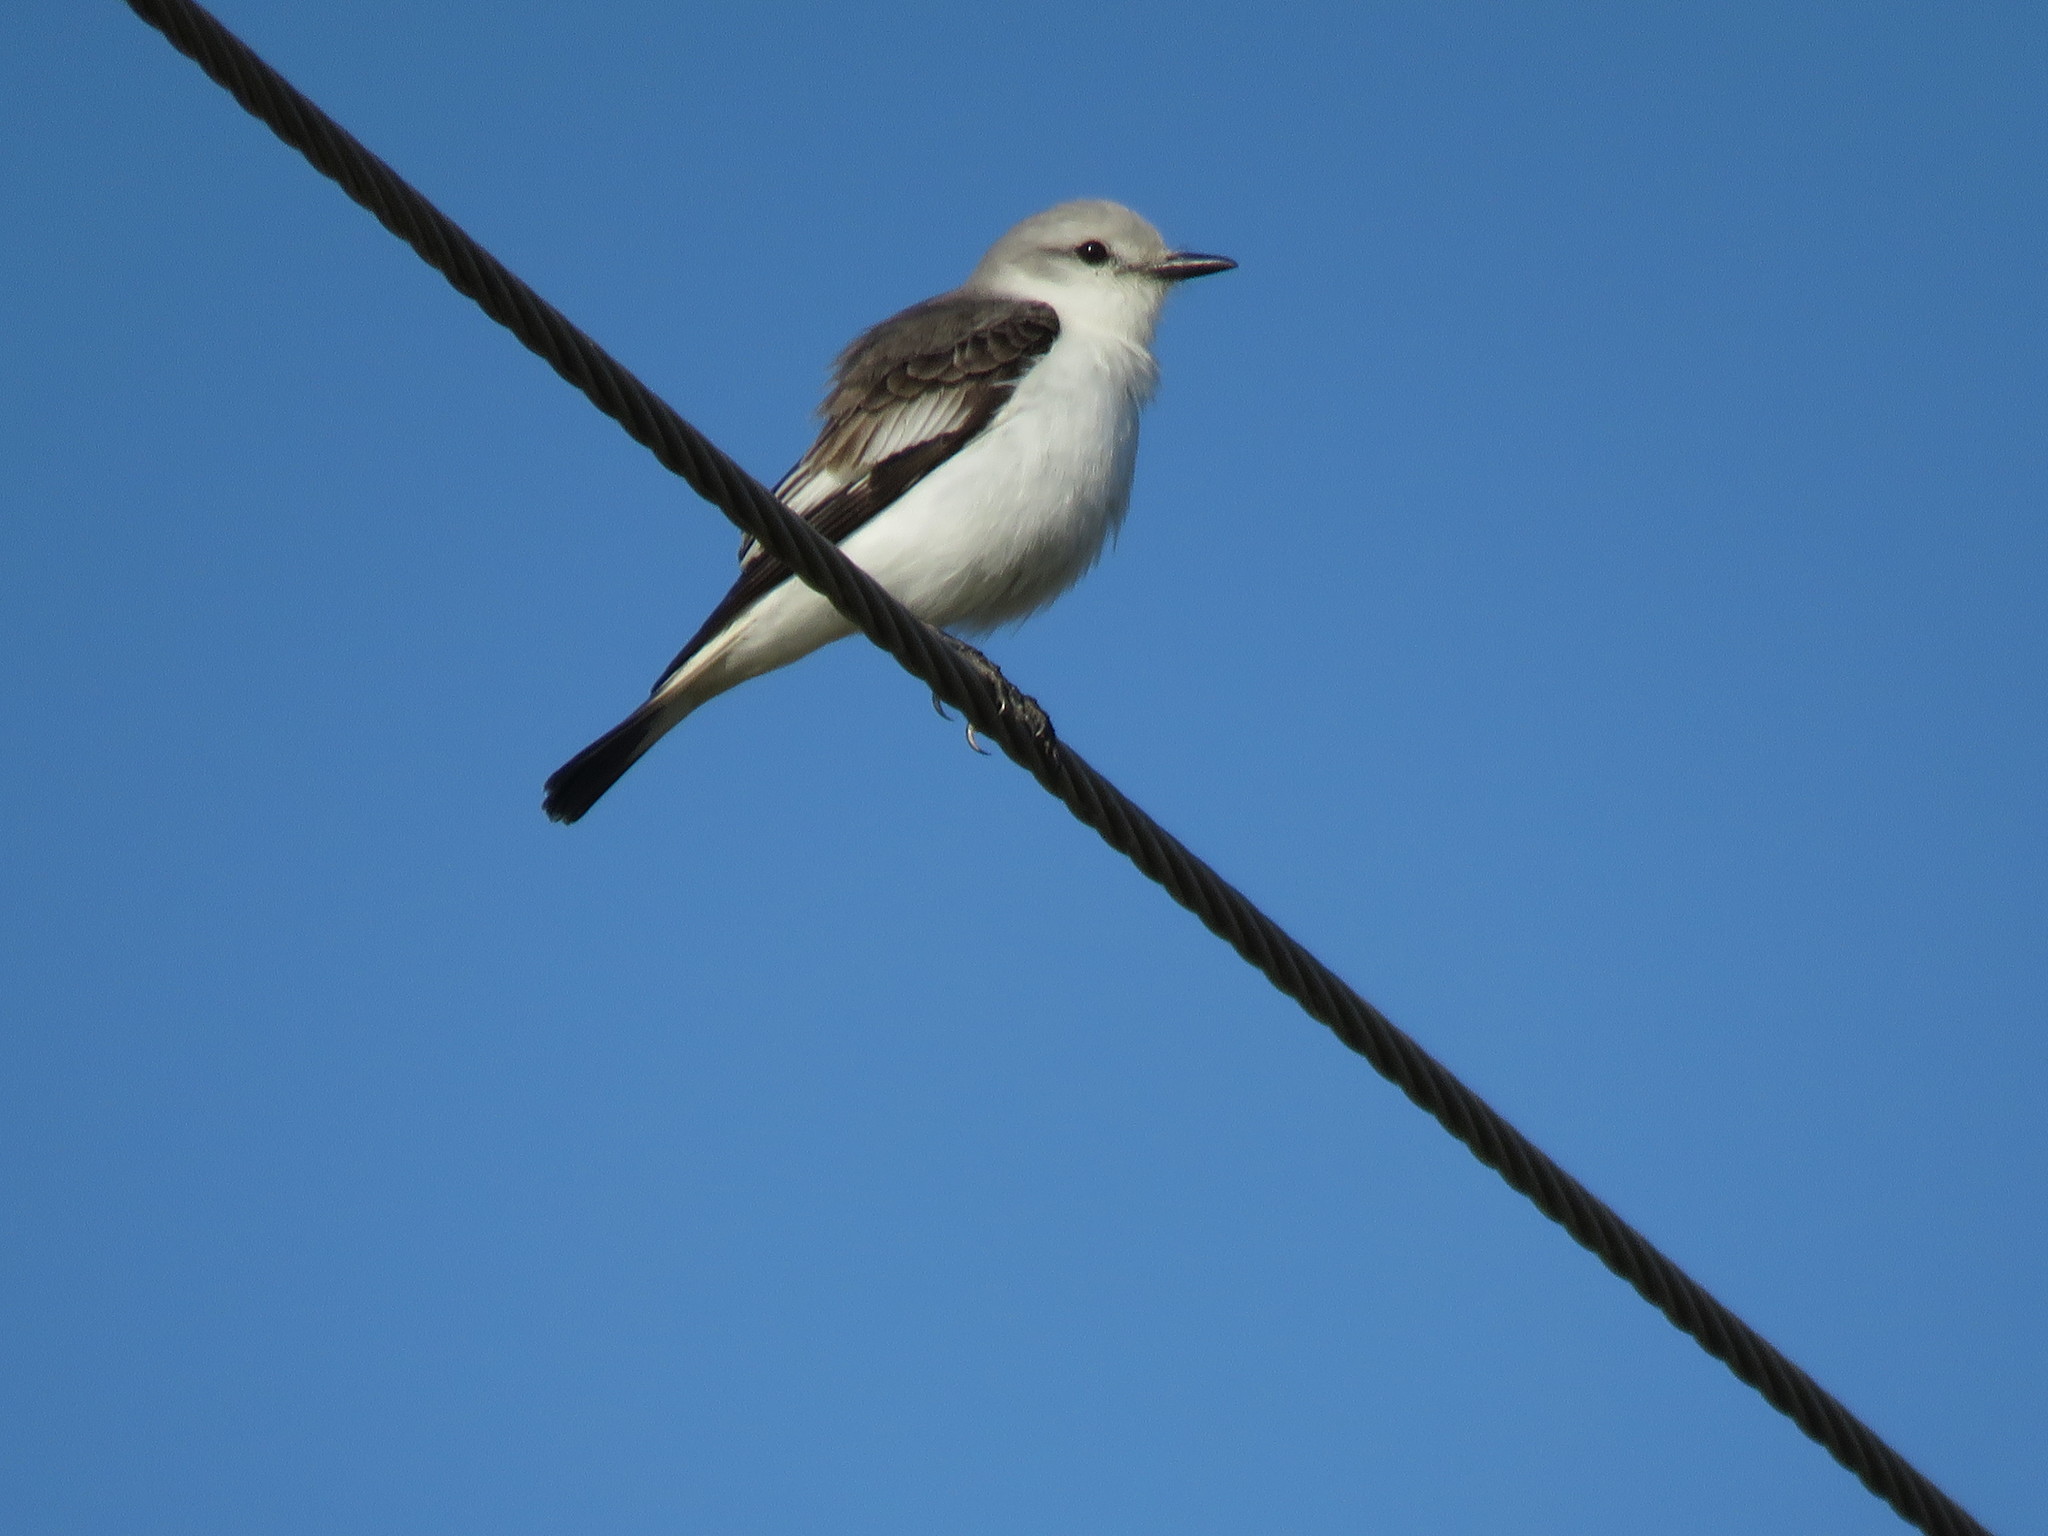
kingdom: Animalia
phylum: Chordata
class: Aves
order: Passeriformes
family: Tyrannidae
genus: Xolmis
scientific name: Xolmis velatus
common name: White-rumped monjita
